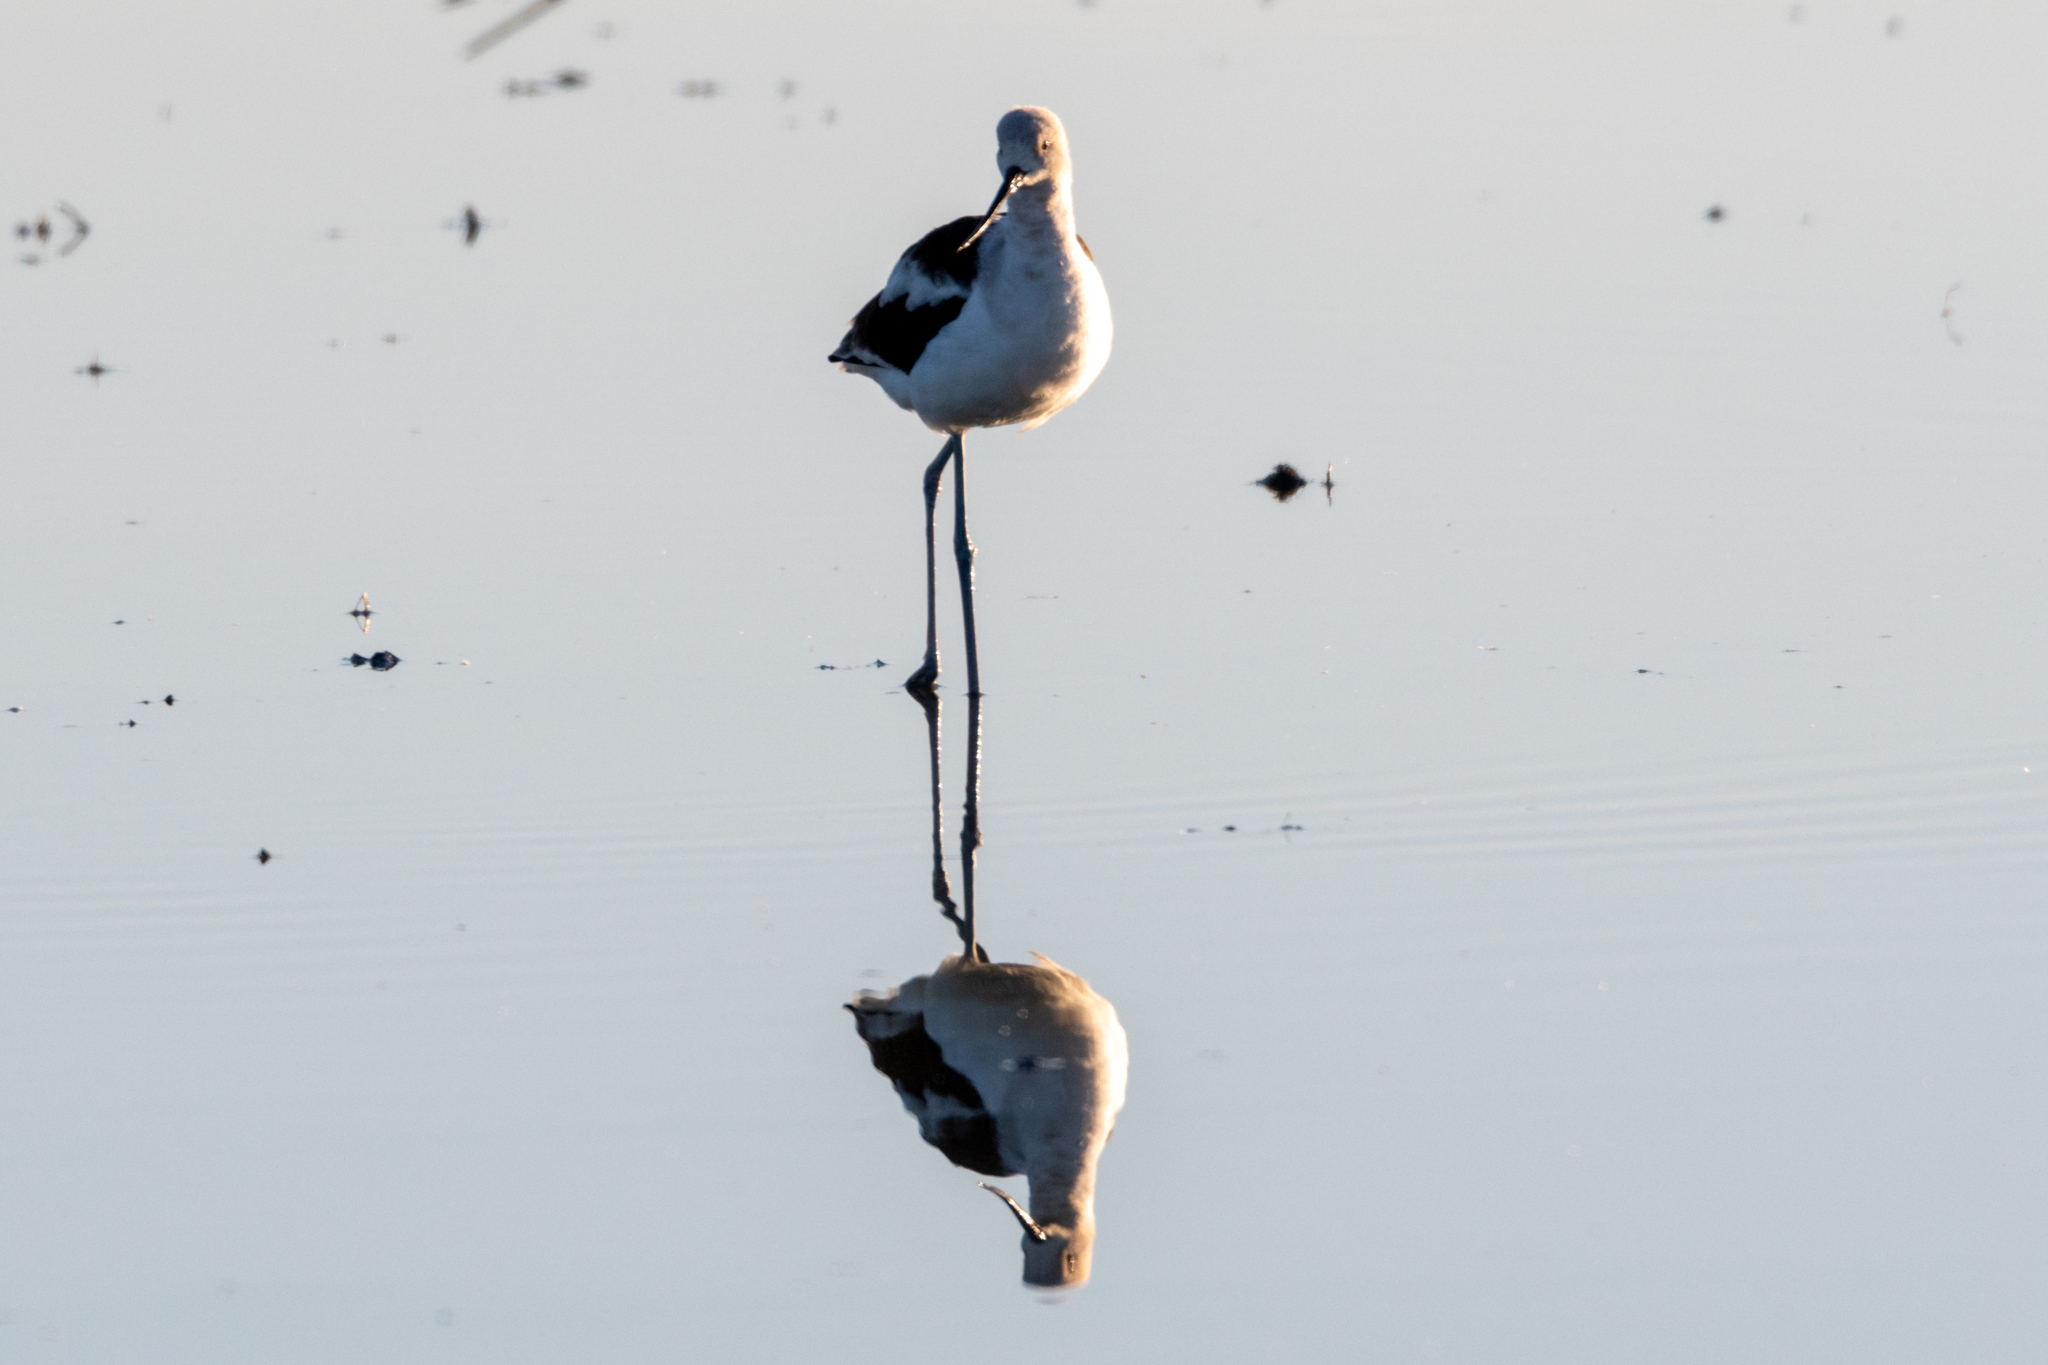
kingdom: Animalia
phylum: Chordata
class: Aves
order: Charadriiformes
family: Recurvirostridae
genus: Recurvirostra
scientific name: Recurvirostra americana
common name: American avocet
